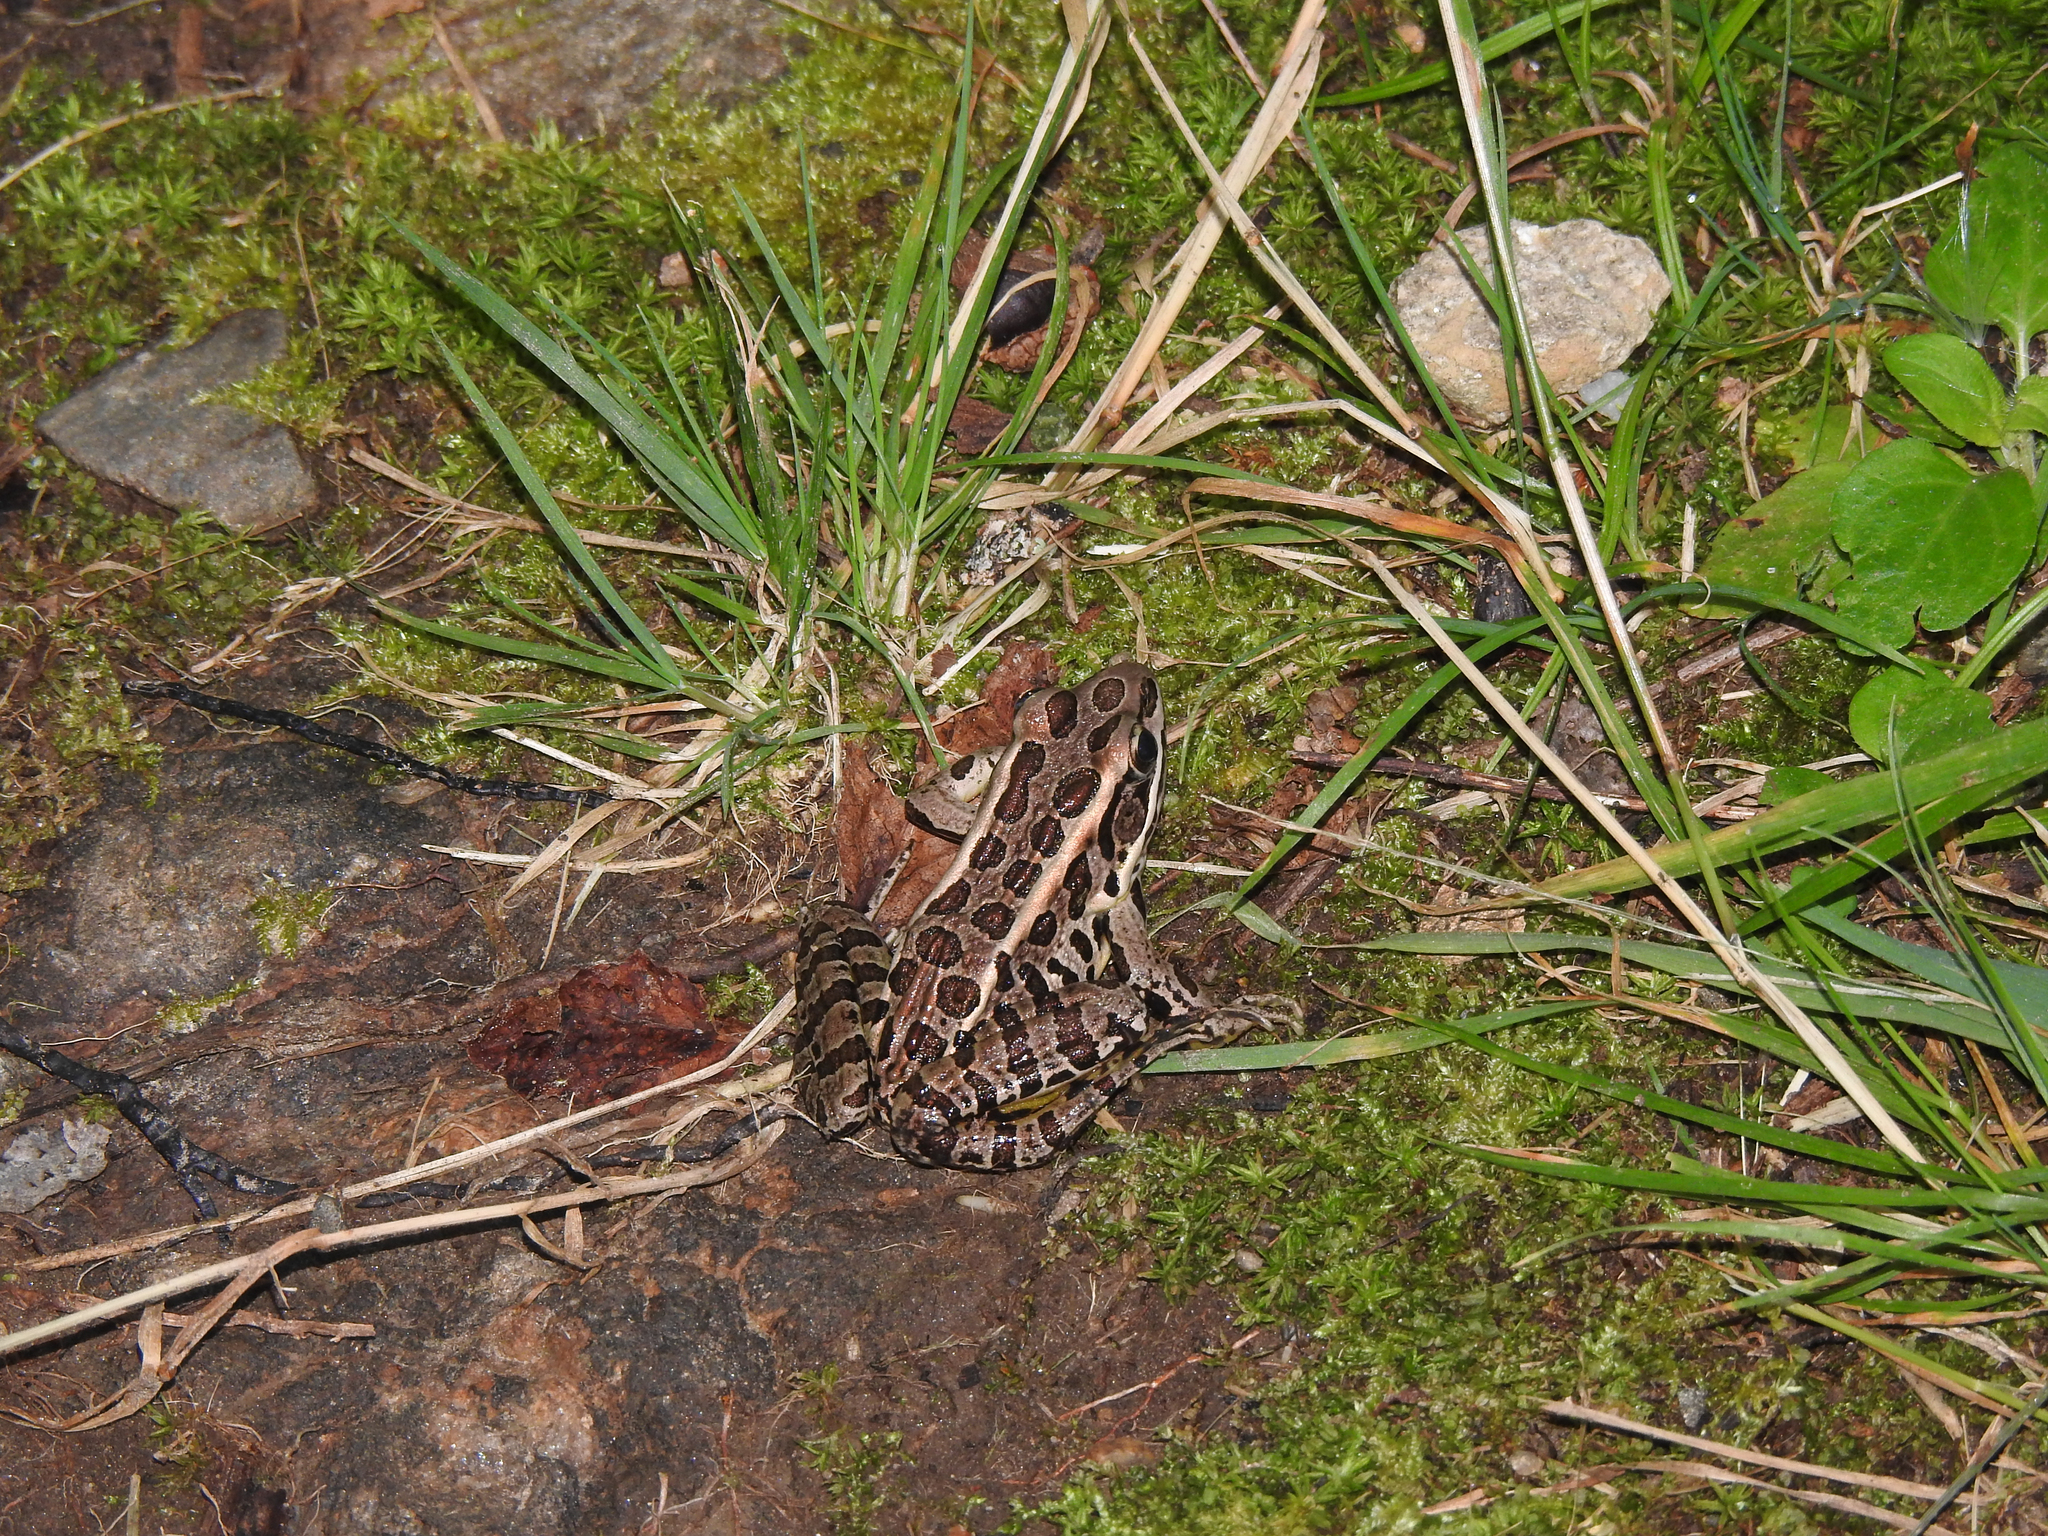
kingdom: Animalia
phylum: Chordata
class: Amphibia
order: Anura
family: Ranidae
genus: Lithobates
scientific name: Lithobates palustris
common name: Pickerel frog
